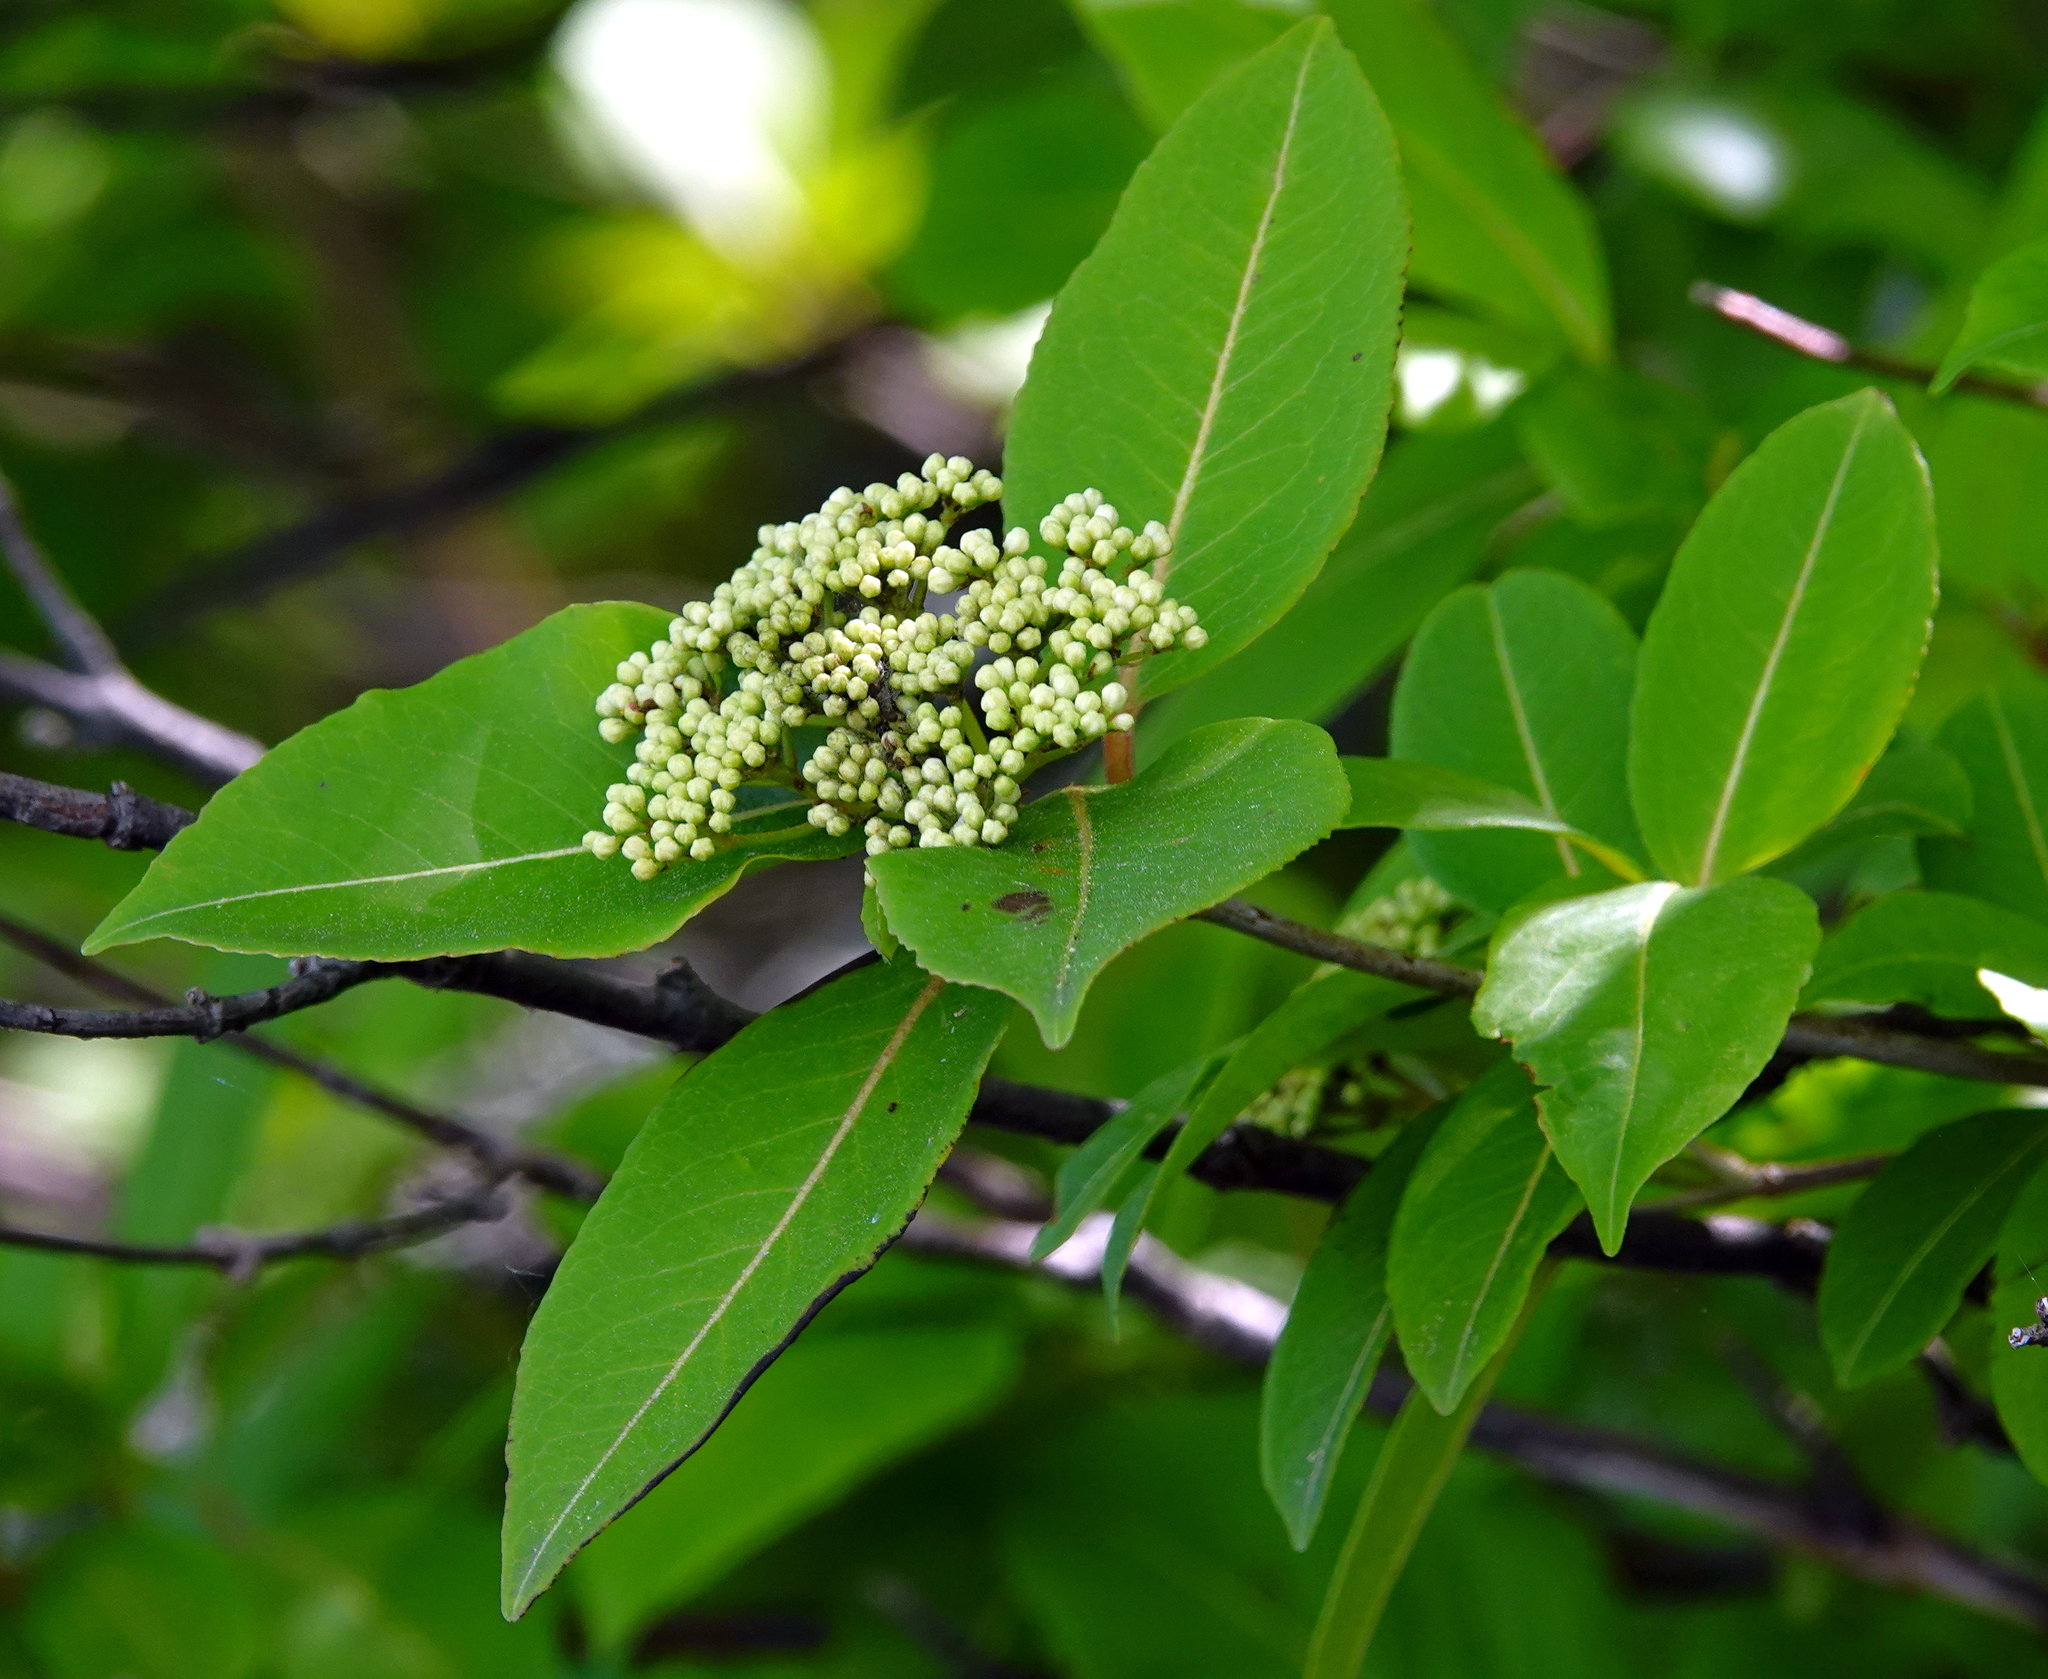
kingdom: Plantae
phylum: Tracheophyta
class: Magnoliopsida
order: Dipsacales
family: Viburnaceae
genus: Viburnum
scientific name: Viburnum cassinoides
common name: Swamp haw
